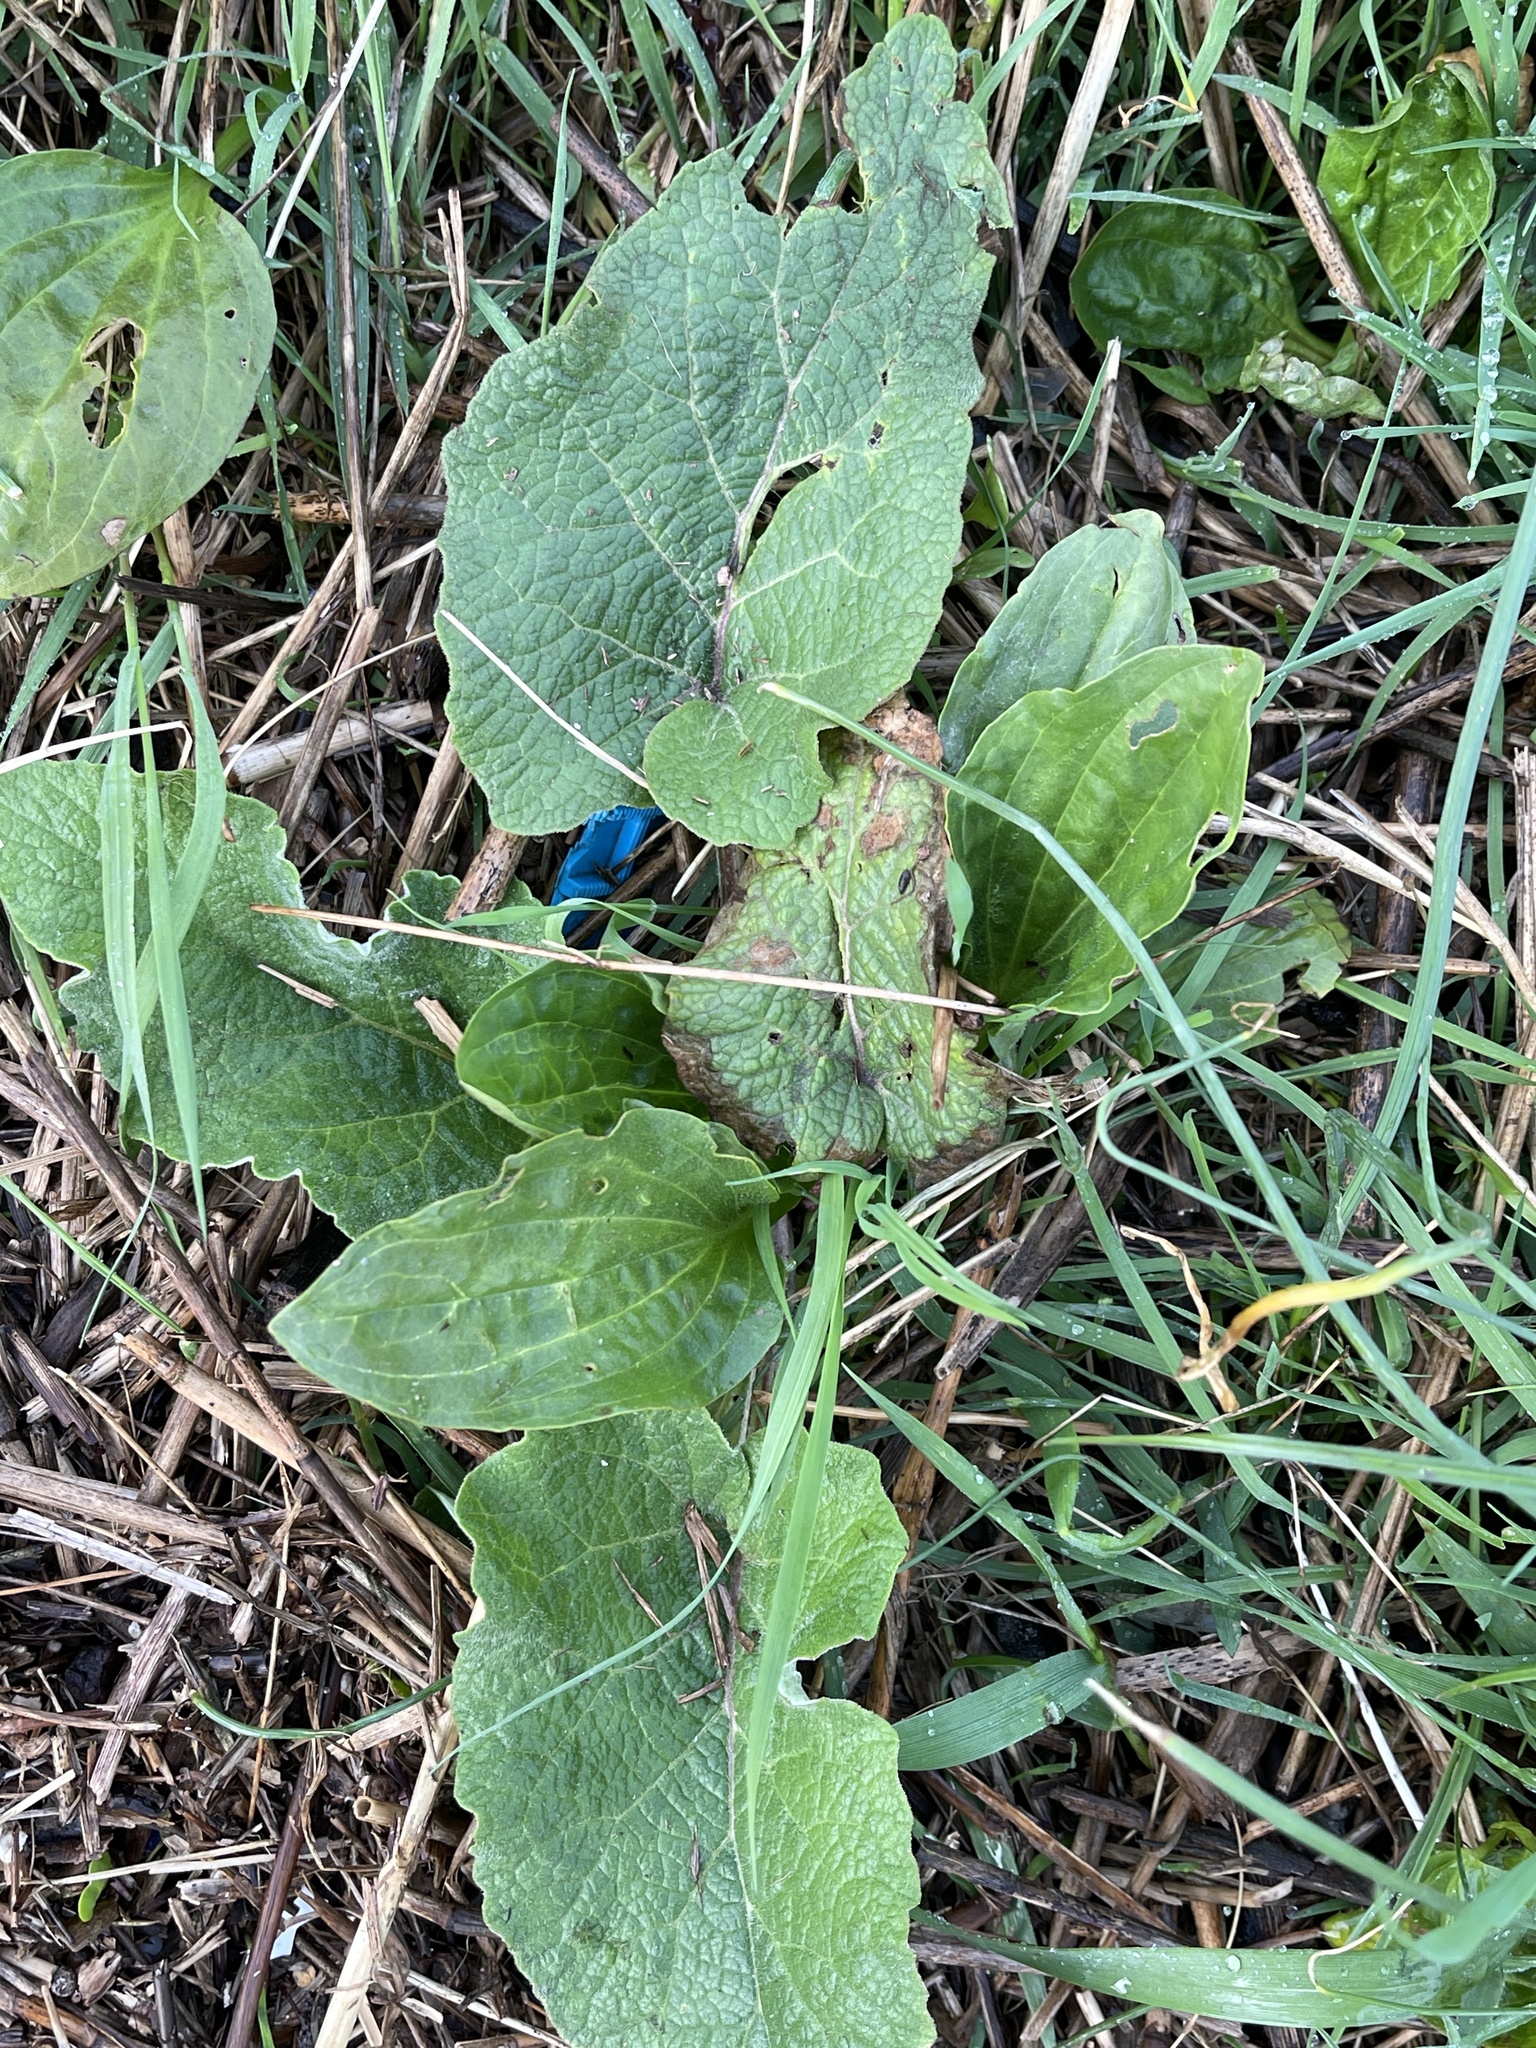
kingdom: Plantae
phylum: Tracheophyta
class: Magnoliopsida
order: Asterales
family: Asteraceae
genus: Arctium
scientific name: Arctium minus
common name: Lesser burdock
